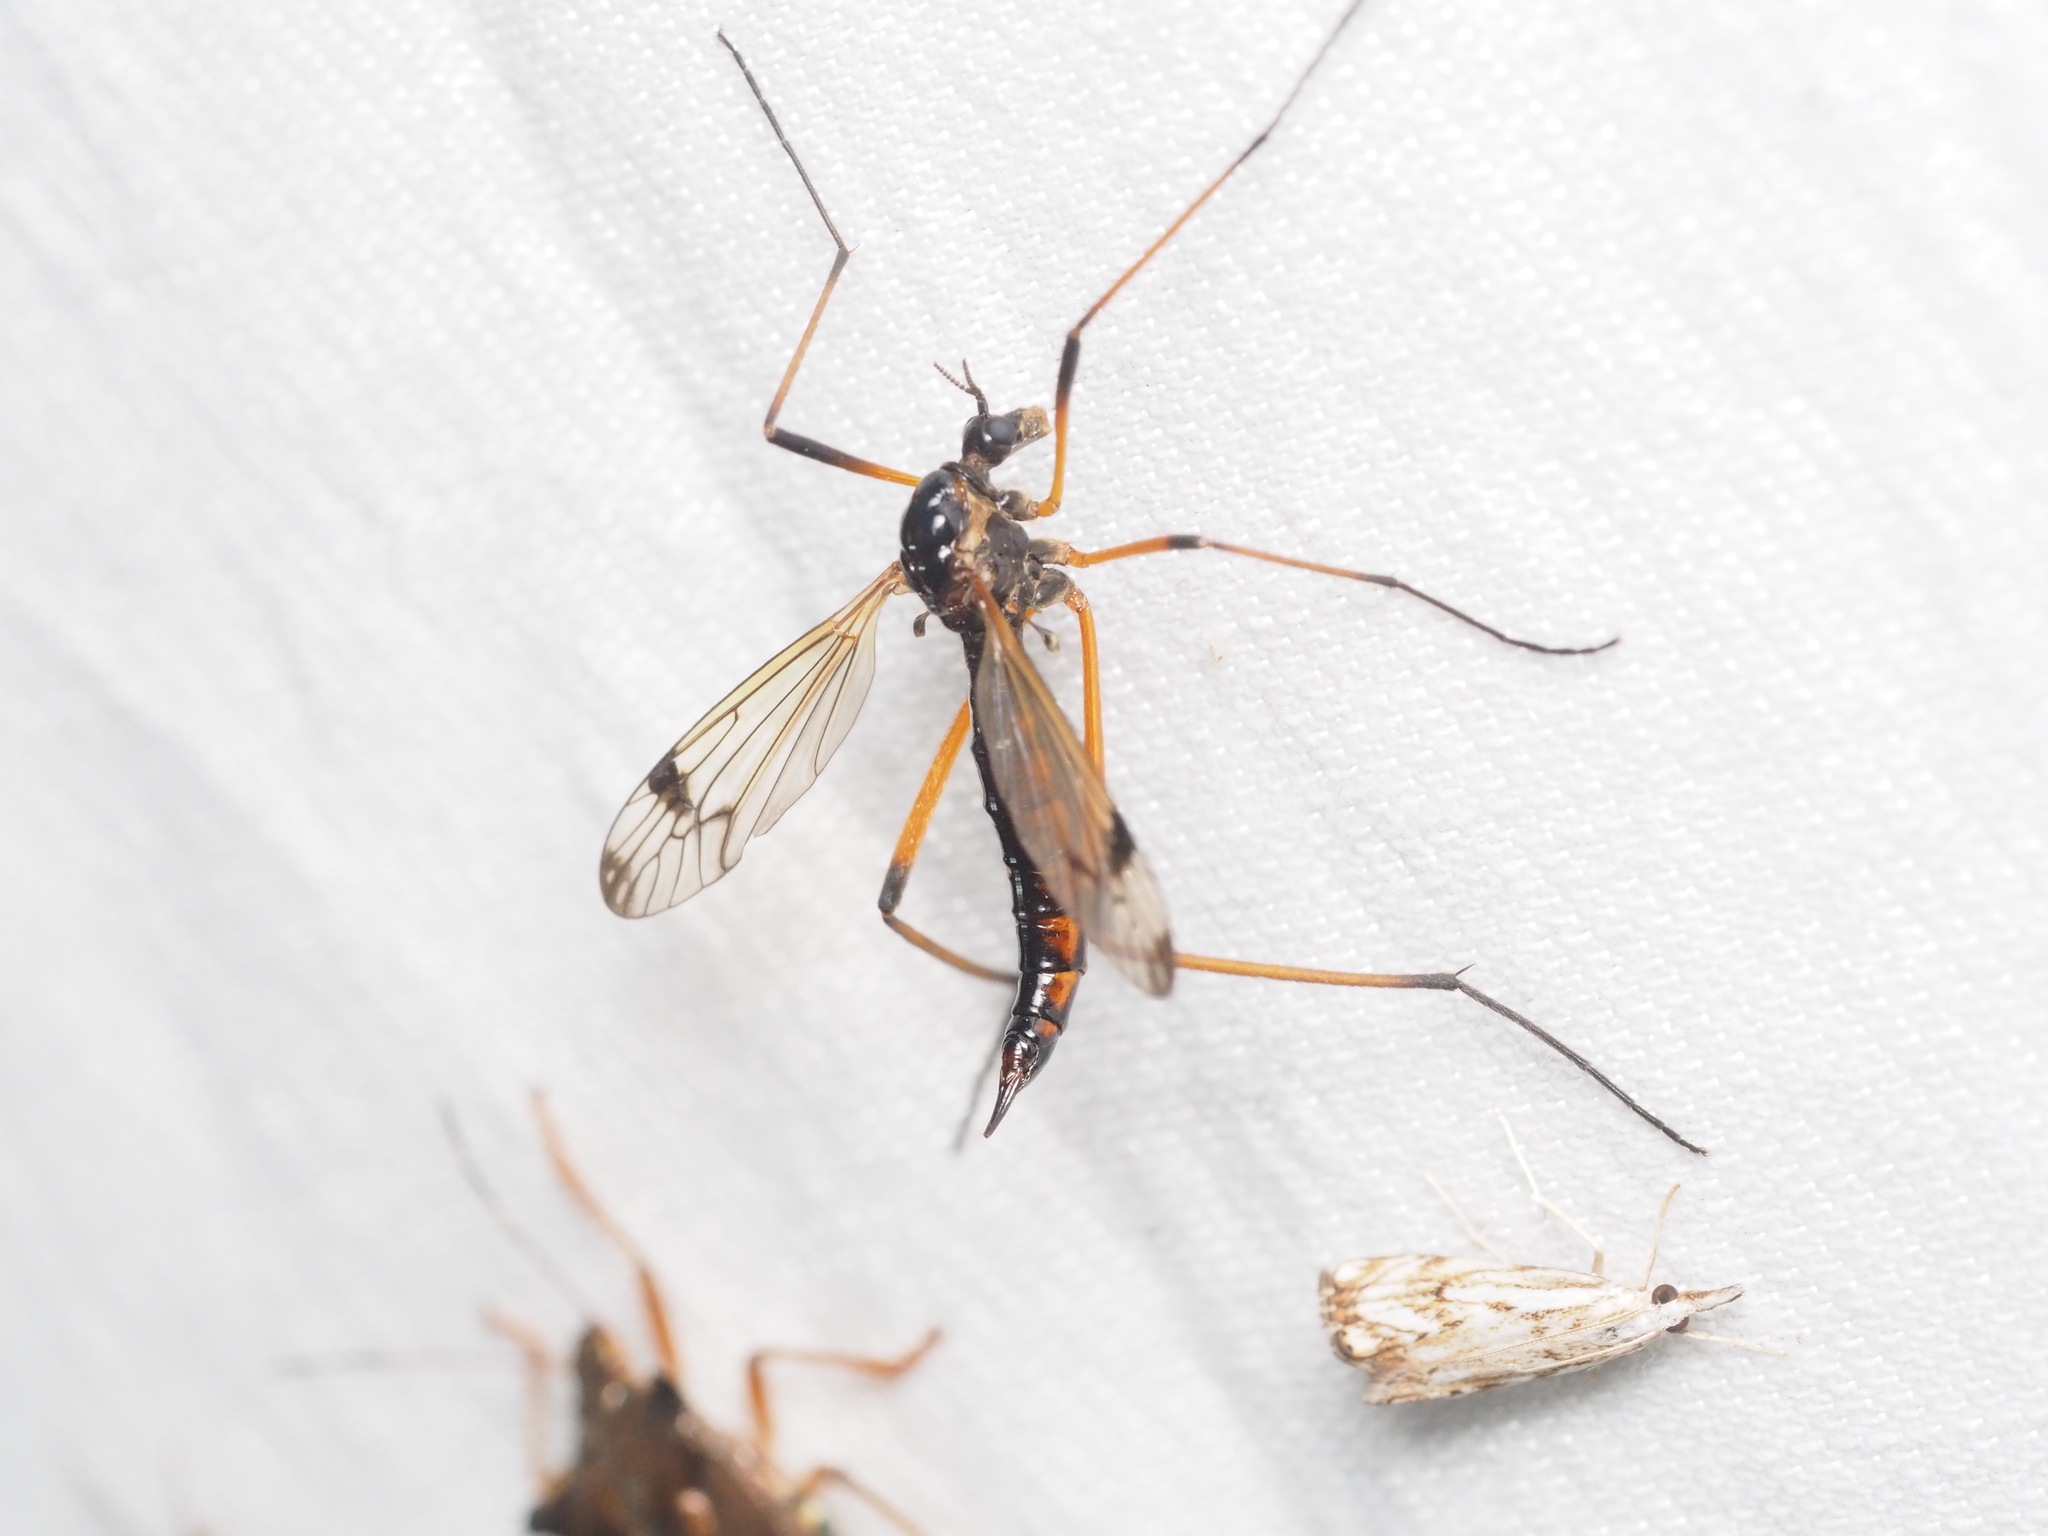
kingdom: Animalia
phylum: Arthropoda
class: Insecta
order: Diptera
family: Tipulidae
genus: Dictenidia
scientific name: Dictenidia bimaculata
